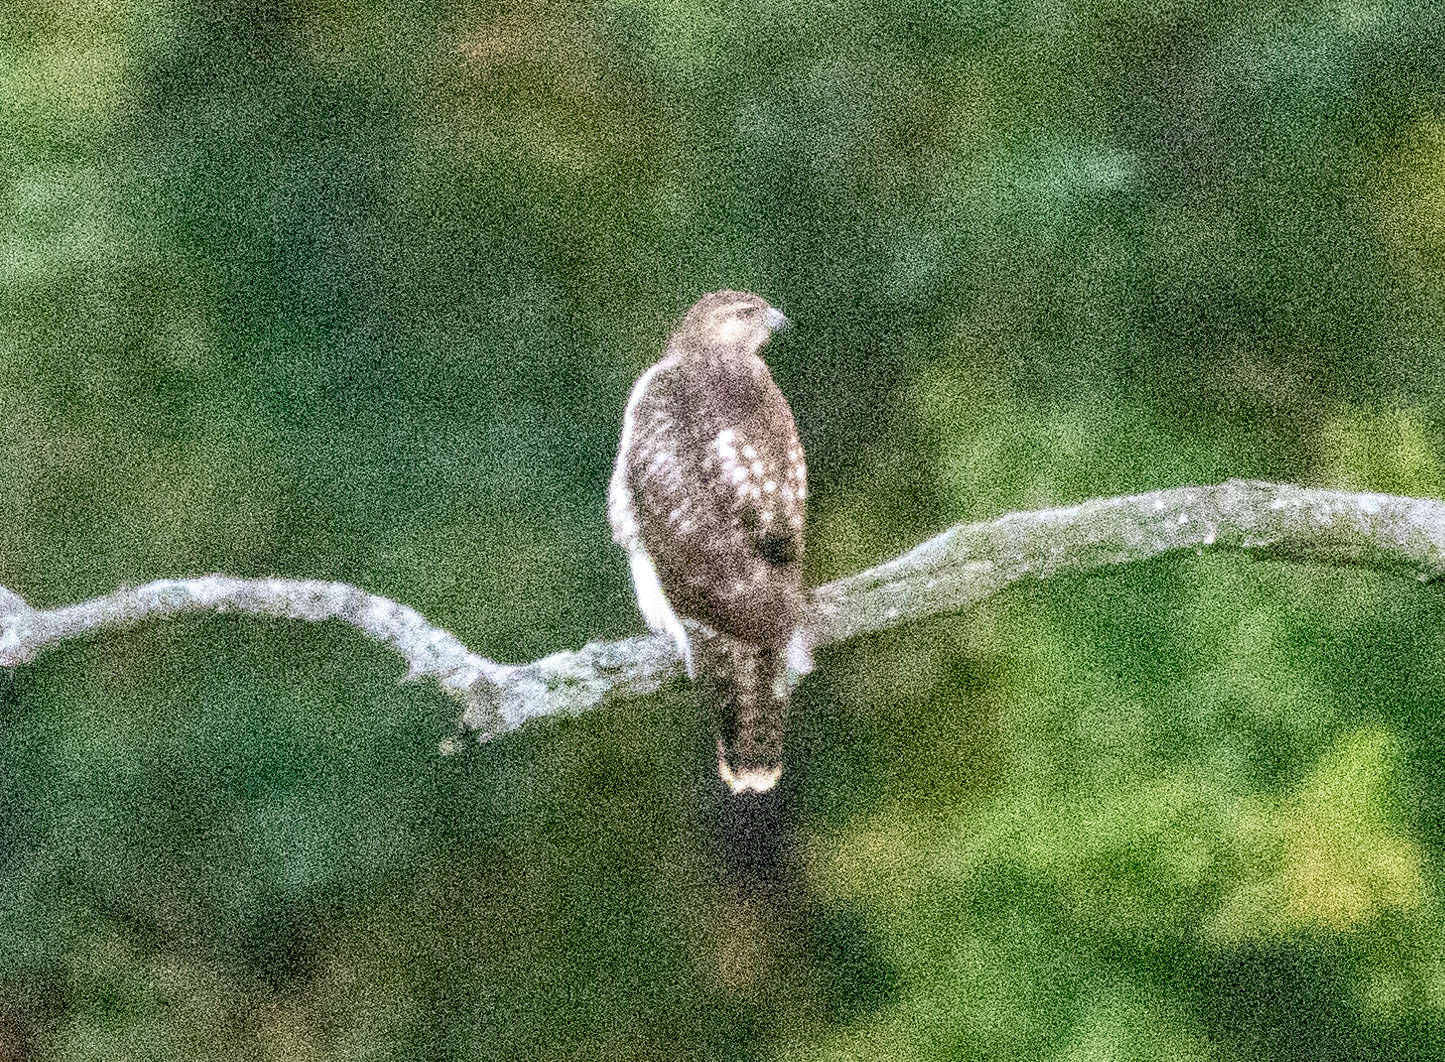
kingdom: Animalia
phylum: Chordata
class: Aves
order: Accipitriformes
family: Accipitridae
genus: Buteo
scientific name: Buteo jamaicensis
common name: Red-tailed hawk
